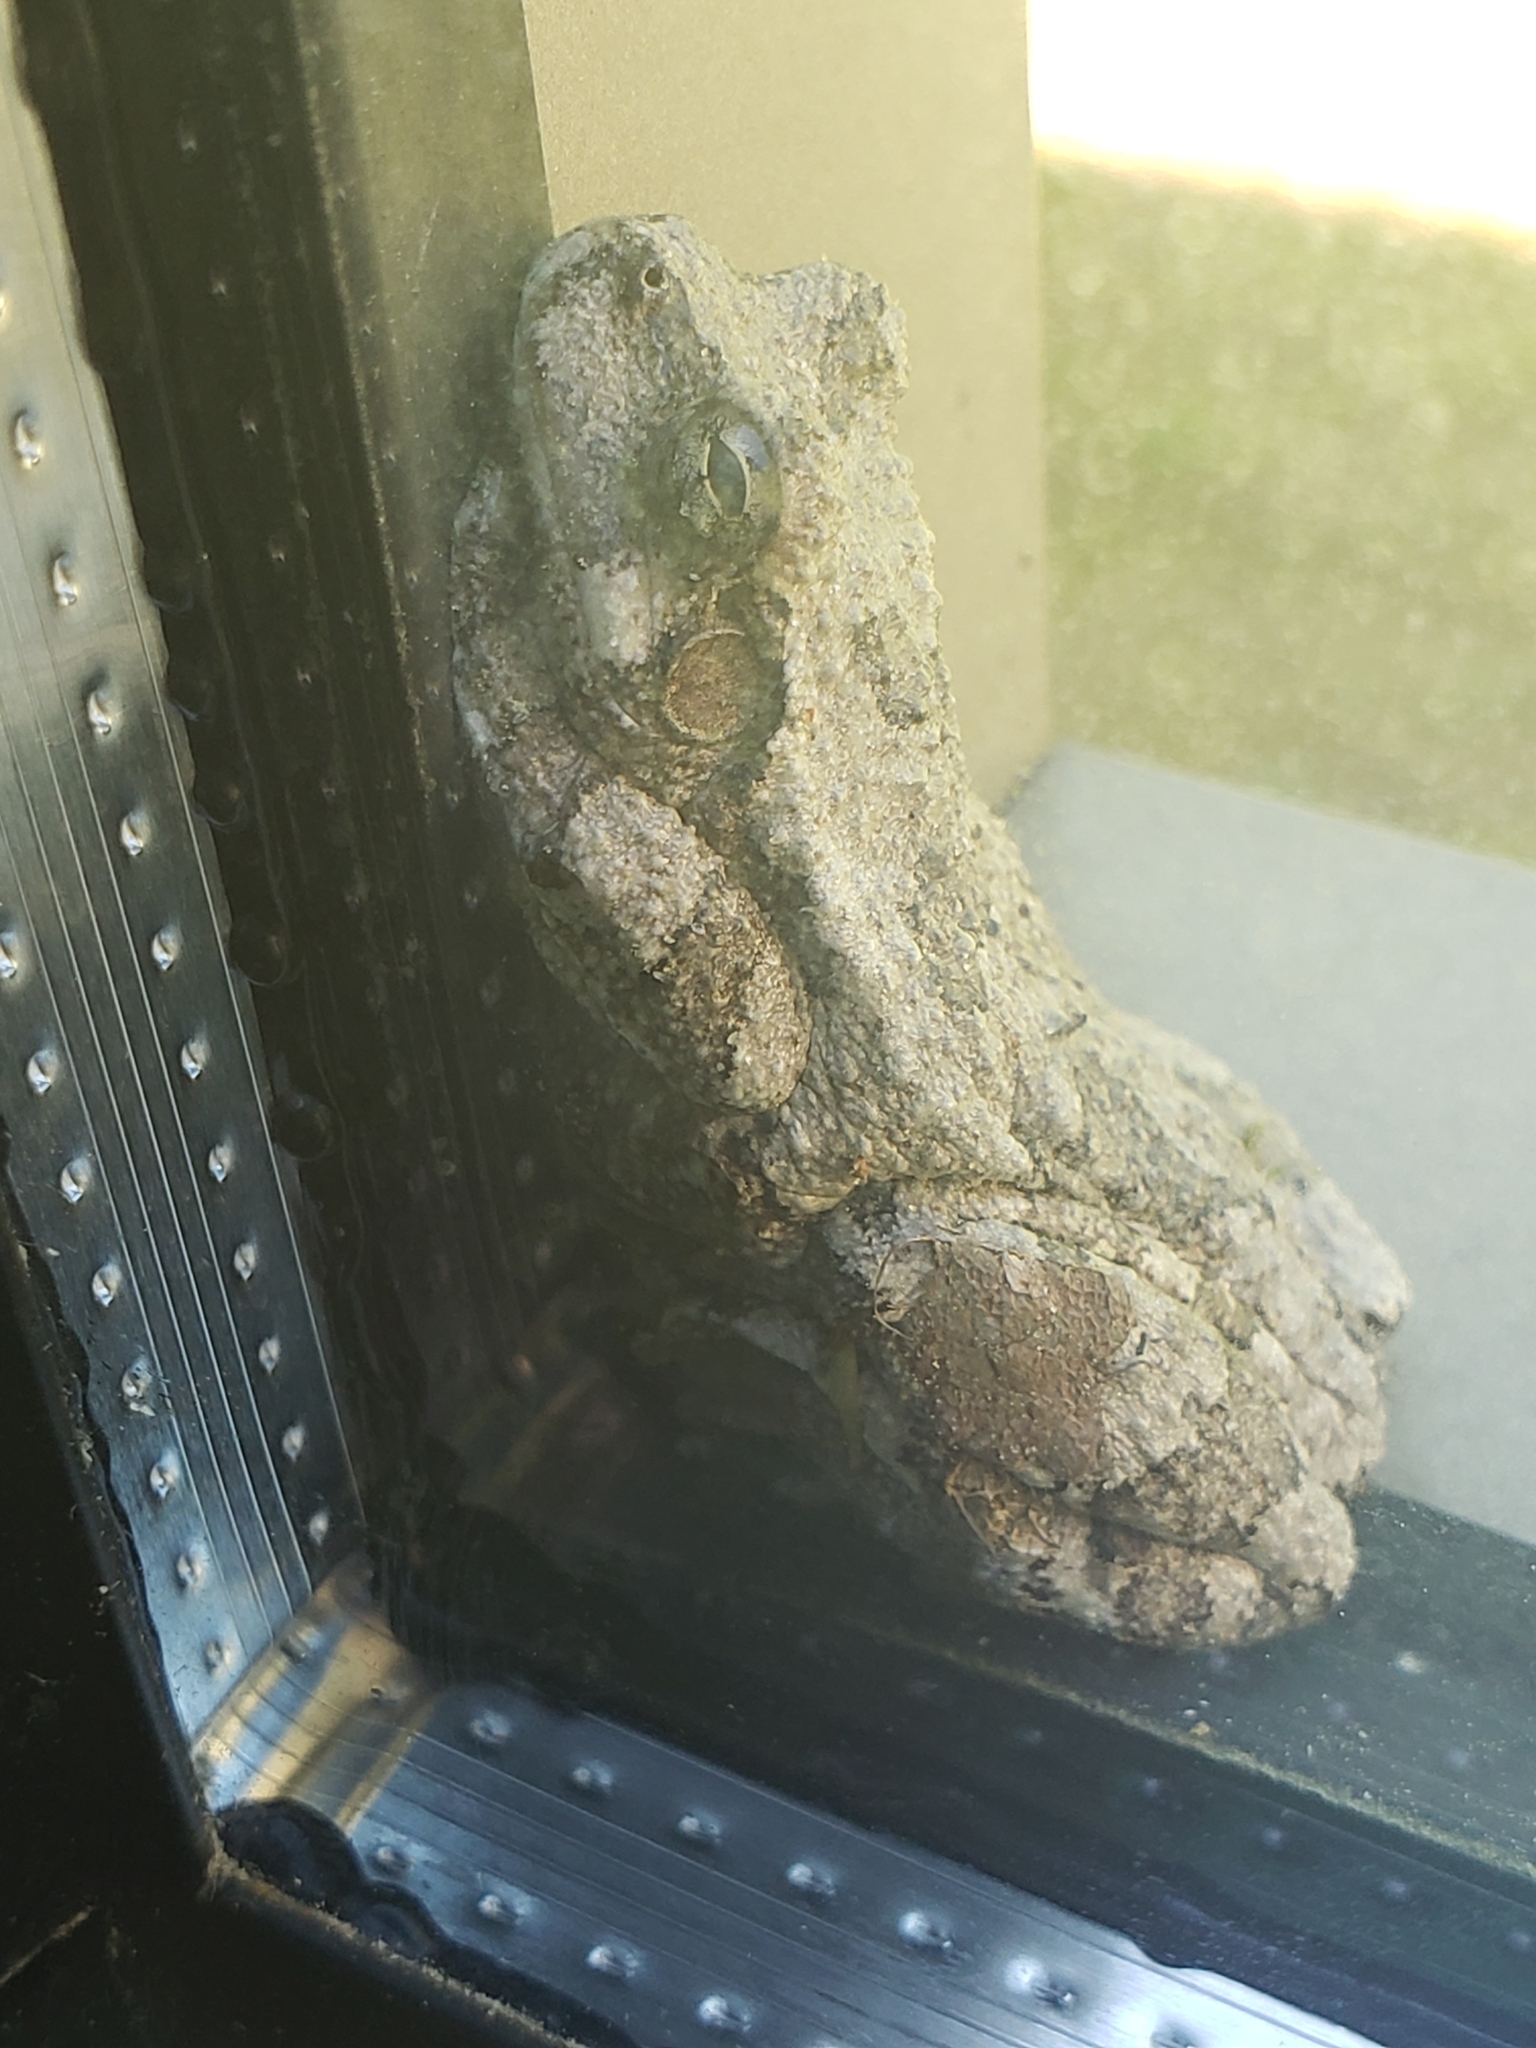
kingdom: Animalia
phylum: Chordata
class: Amphibia
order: Anura
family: Hylidae
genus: Dryophytes
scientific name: Dryophytes chrysoscelis
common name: Cope's gray treefrog
